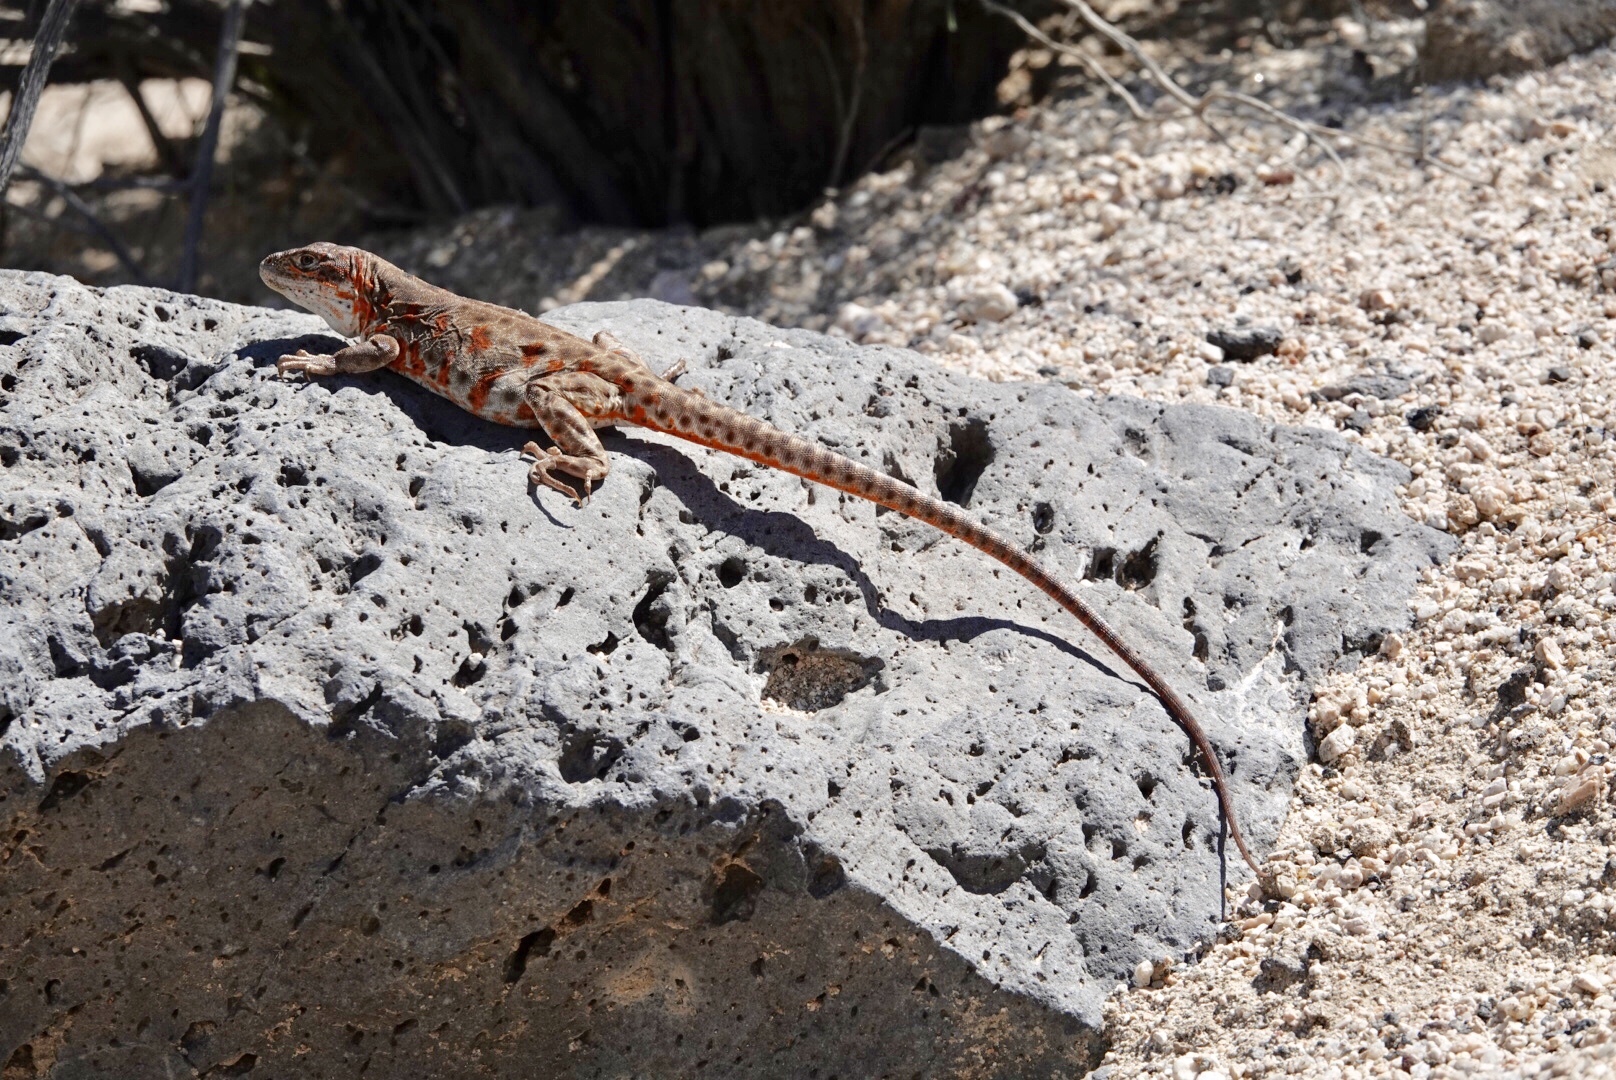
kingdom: Animalia
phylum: Chordata
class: Squamata
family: Crotaphytidae
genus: Gambelia
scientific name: Gambelia wislizenii
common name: Longnose leopard lizard
